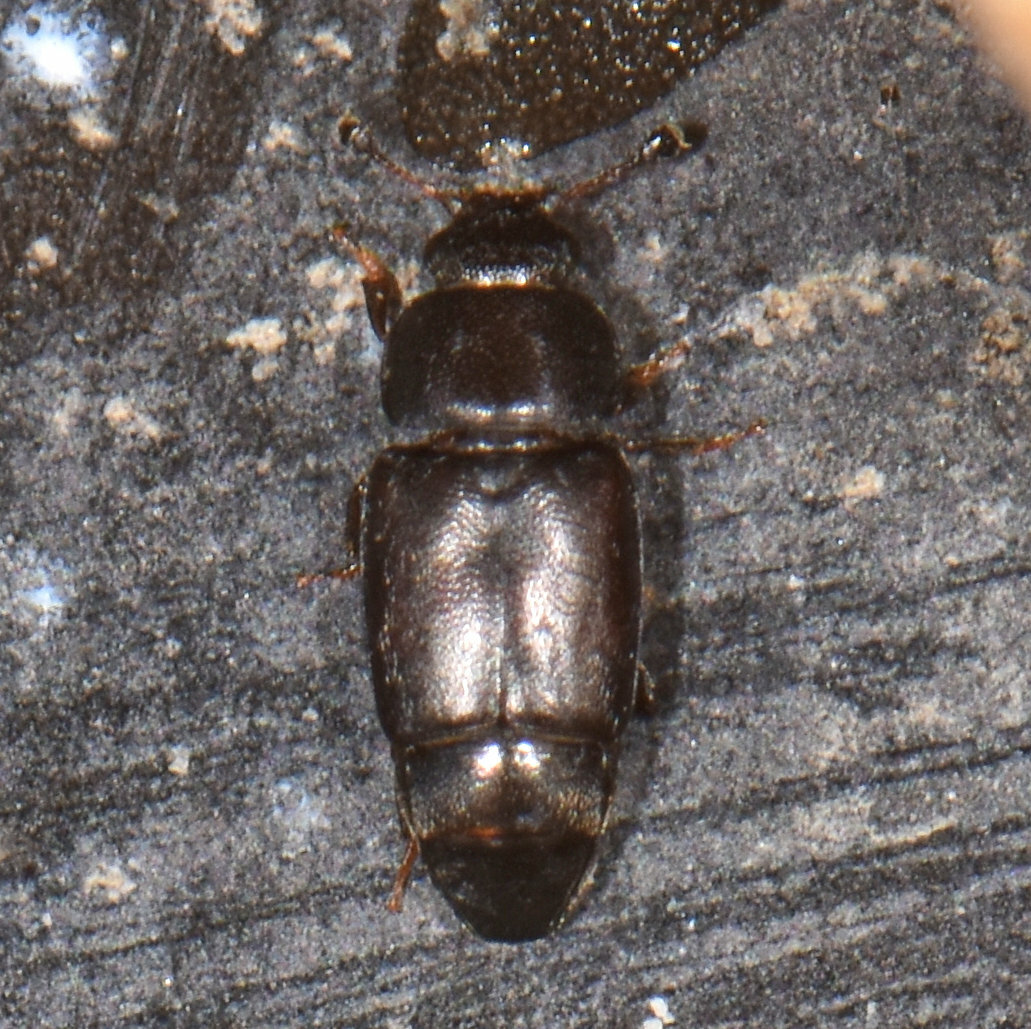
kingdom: Animalia
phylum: Arthropoda
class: Insecta
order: Coleoptera
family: Nitidulidae
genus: Carpophilus
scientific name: Carpophilus brachypterus
